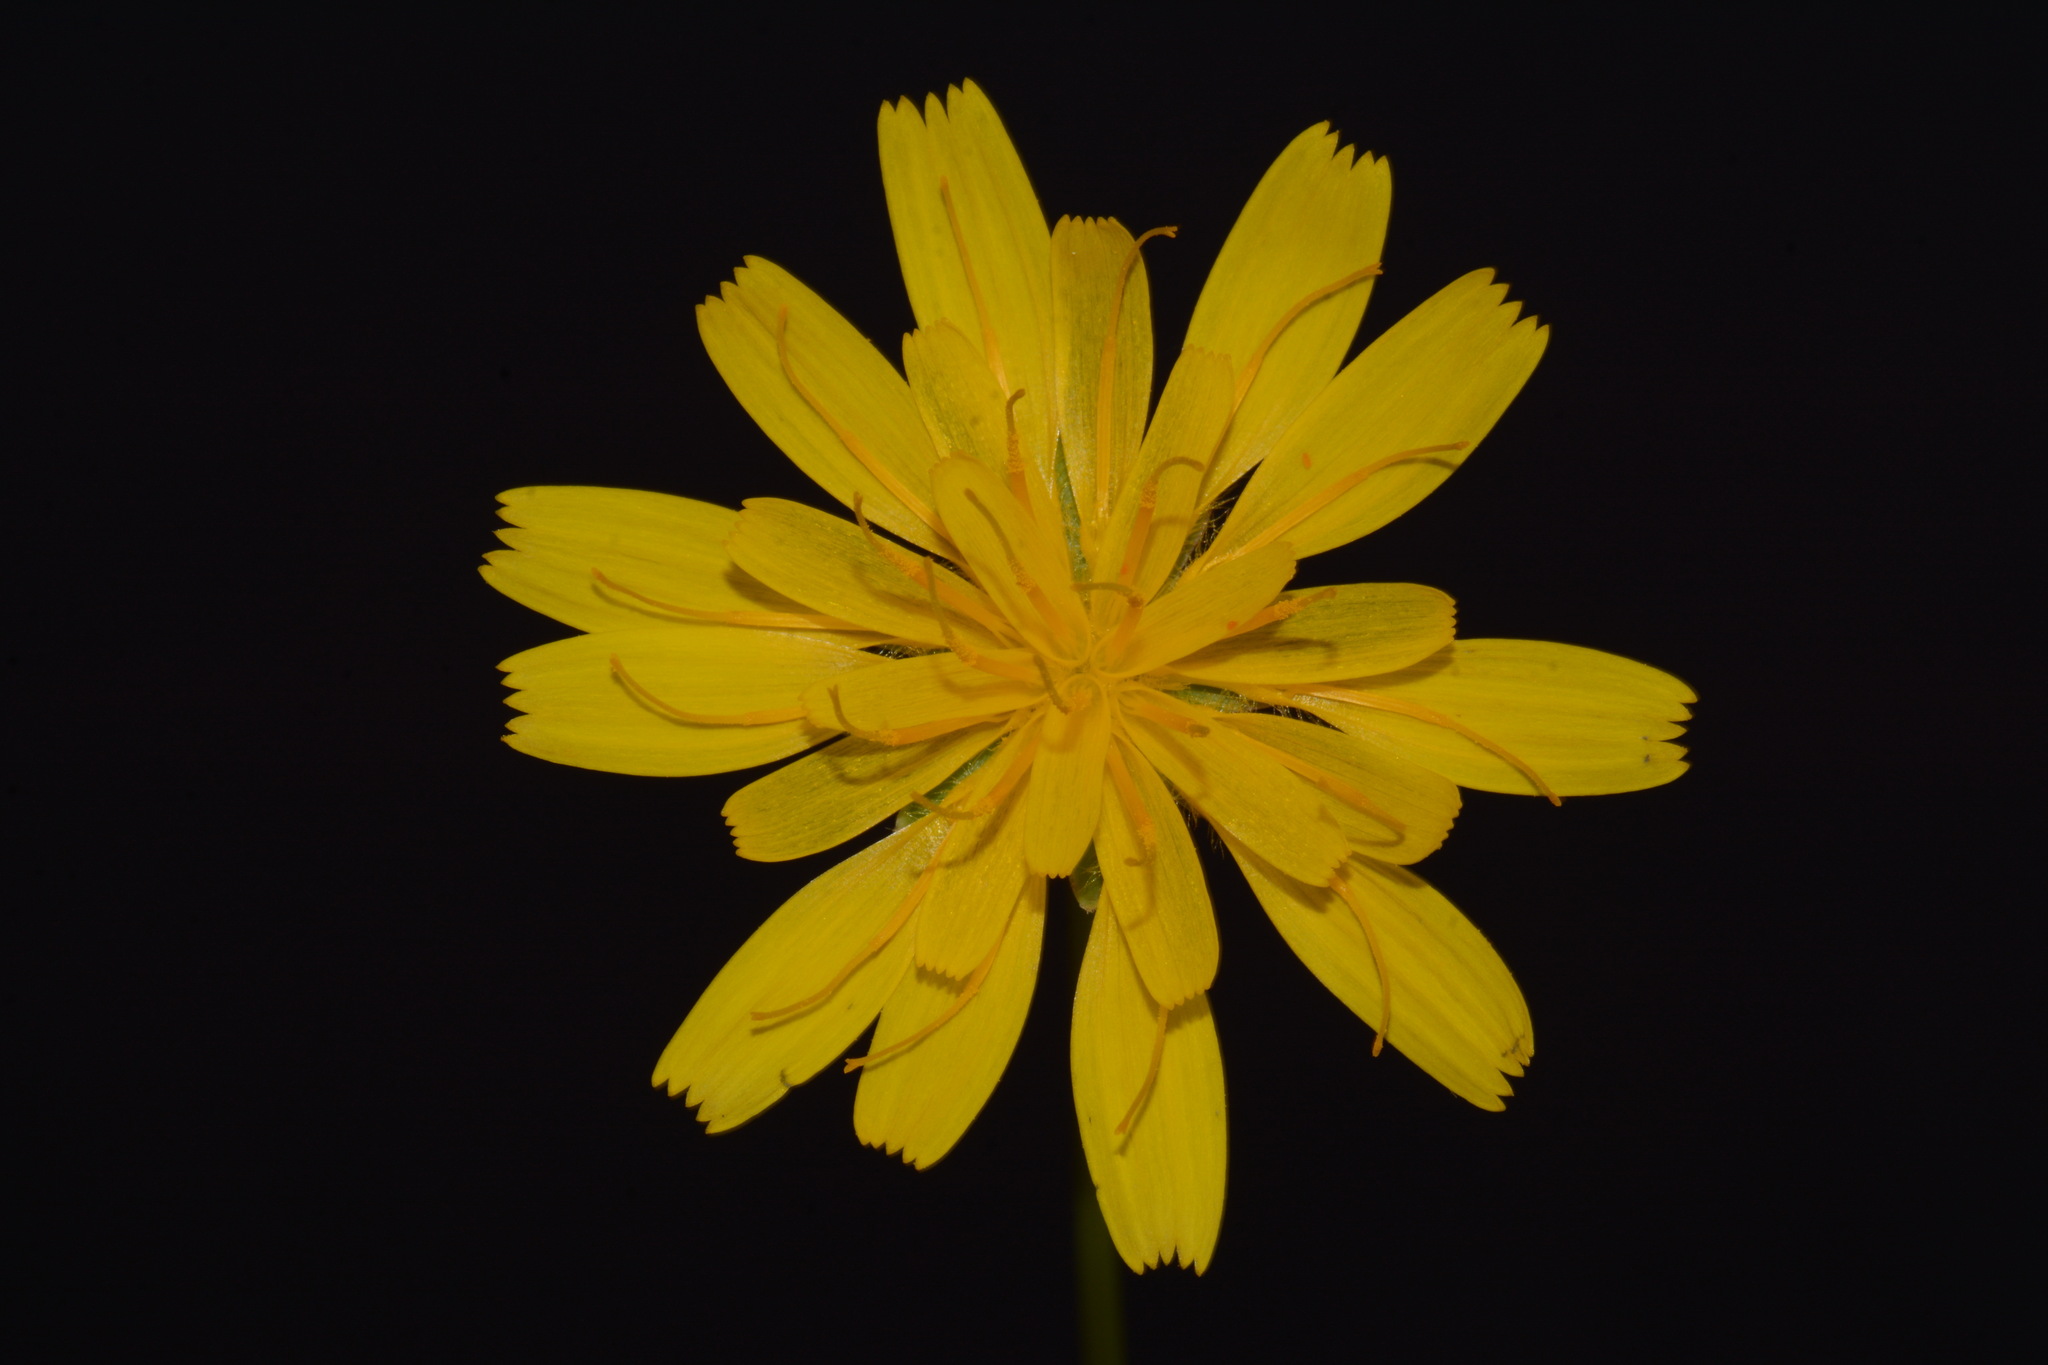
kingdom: Plantae
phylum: Tracheophyta
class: Magnoliopsida
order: Asterales
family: Asteraceae
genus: Krigia
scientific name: Krigia montana
